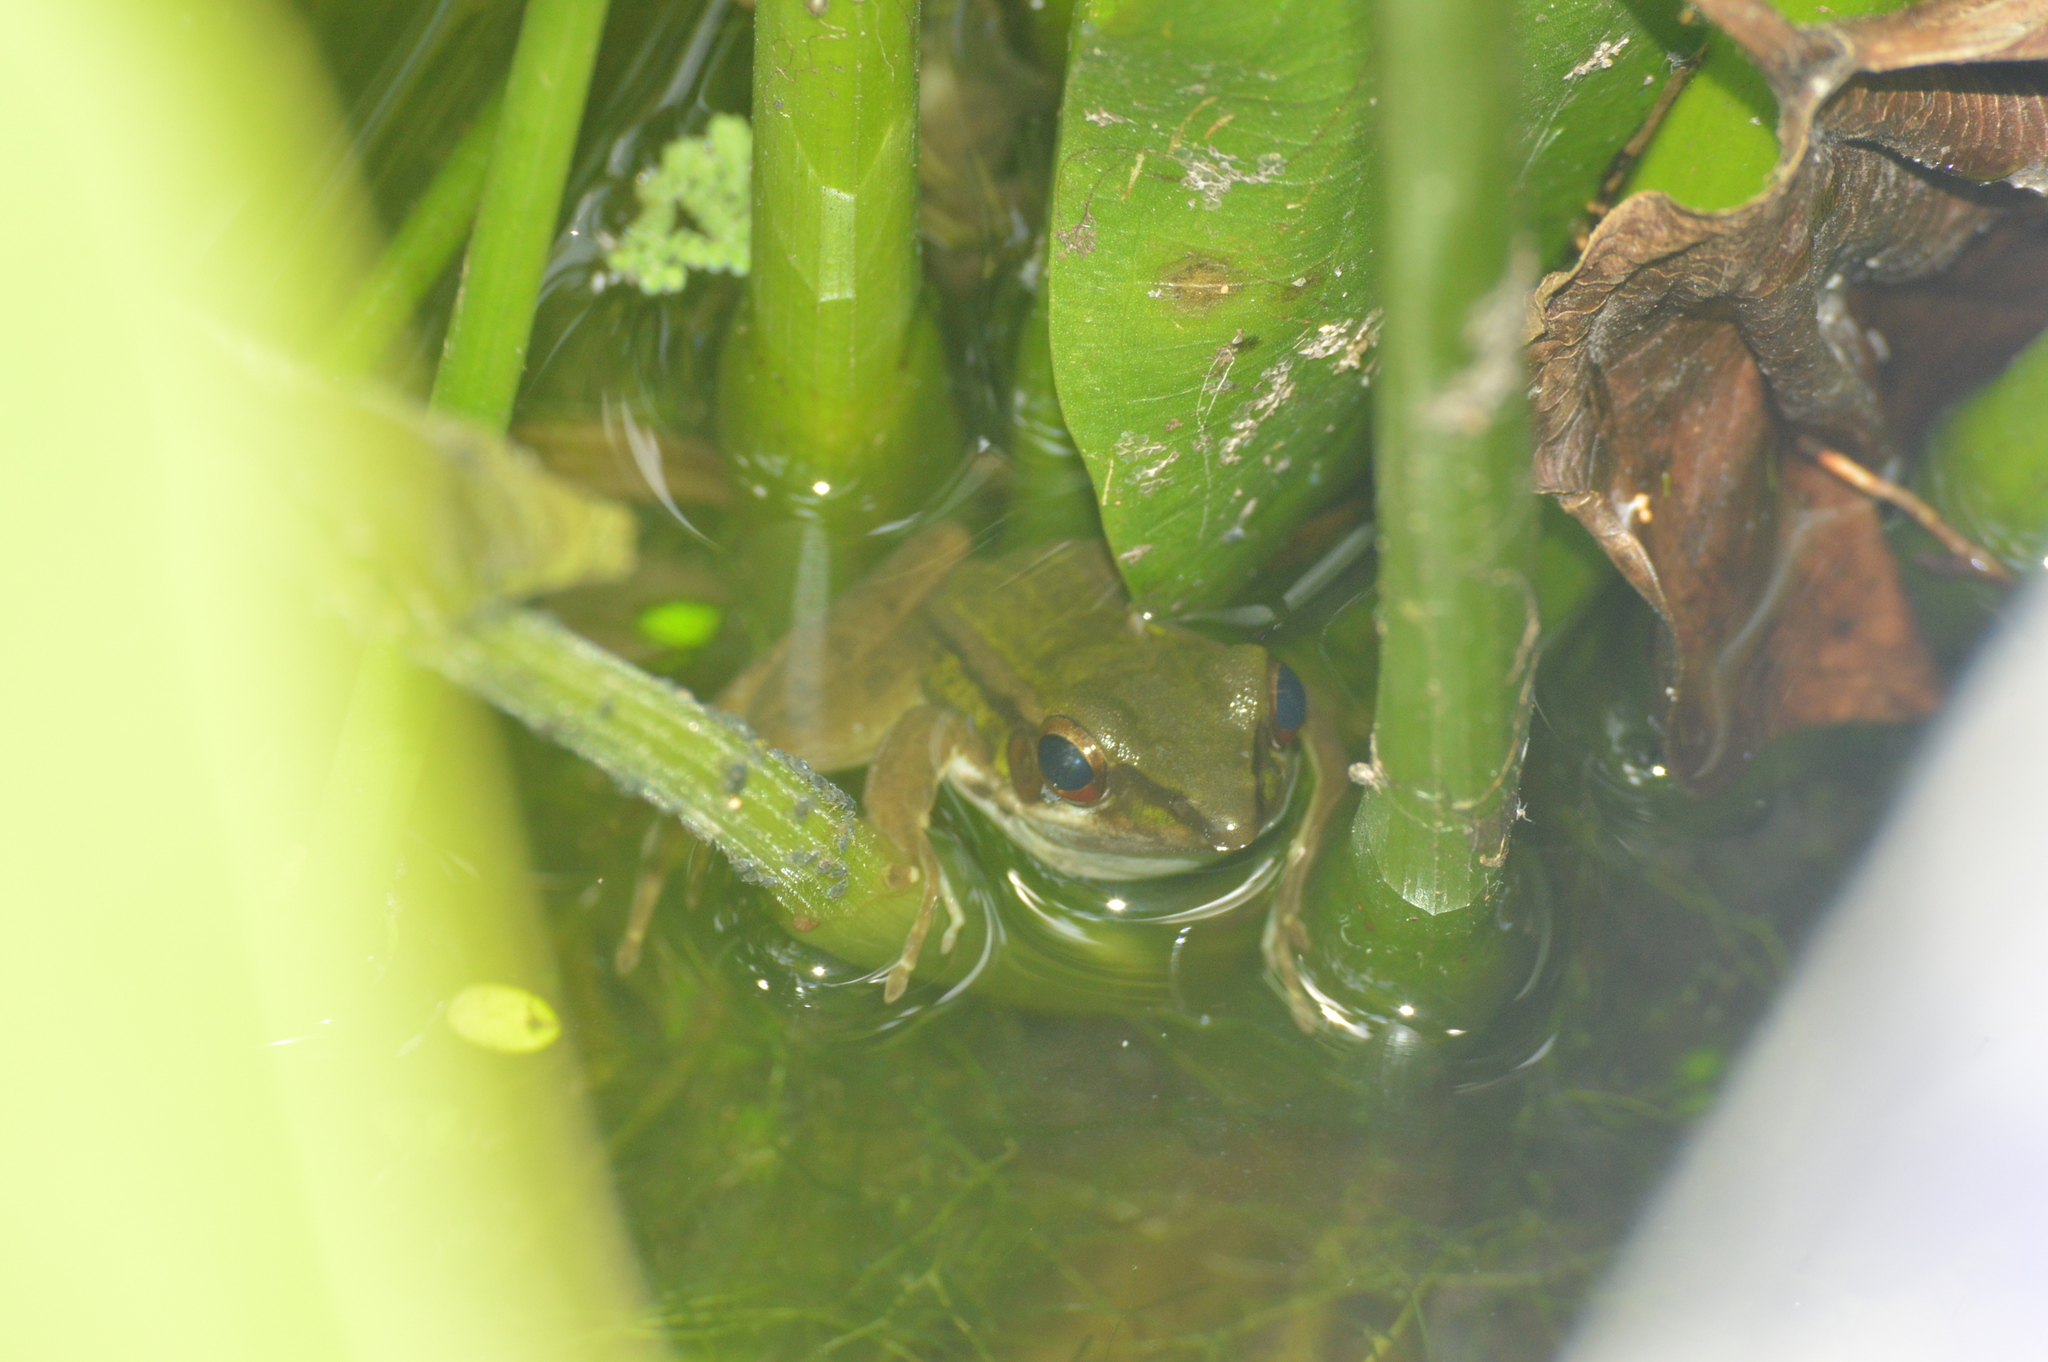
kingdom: Animalia
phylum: Chordata
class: Amphibia
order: Anura
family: Ranidae
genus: Hylarana
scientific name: Hylarana erythraea
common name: Common green frog/green paddy frog/leaf frog
